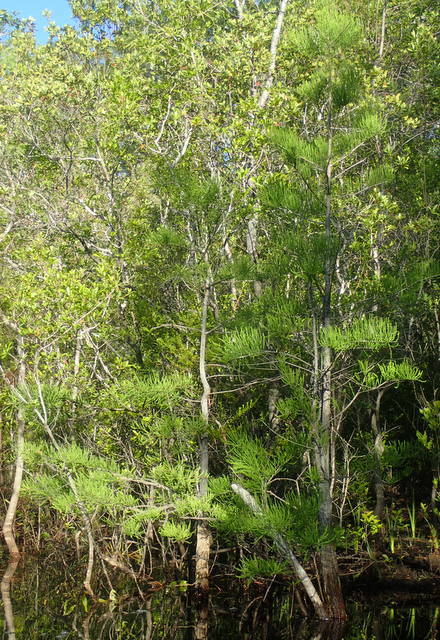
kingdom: Plantae
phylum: Tracheophyta
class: Pinopsida
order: Pinales
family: Cupressaceae
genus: Taxodium
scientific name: Taxodium distichum
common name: Bald cypress
